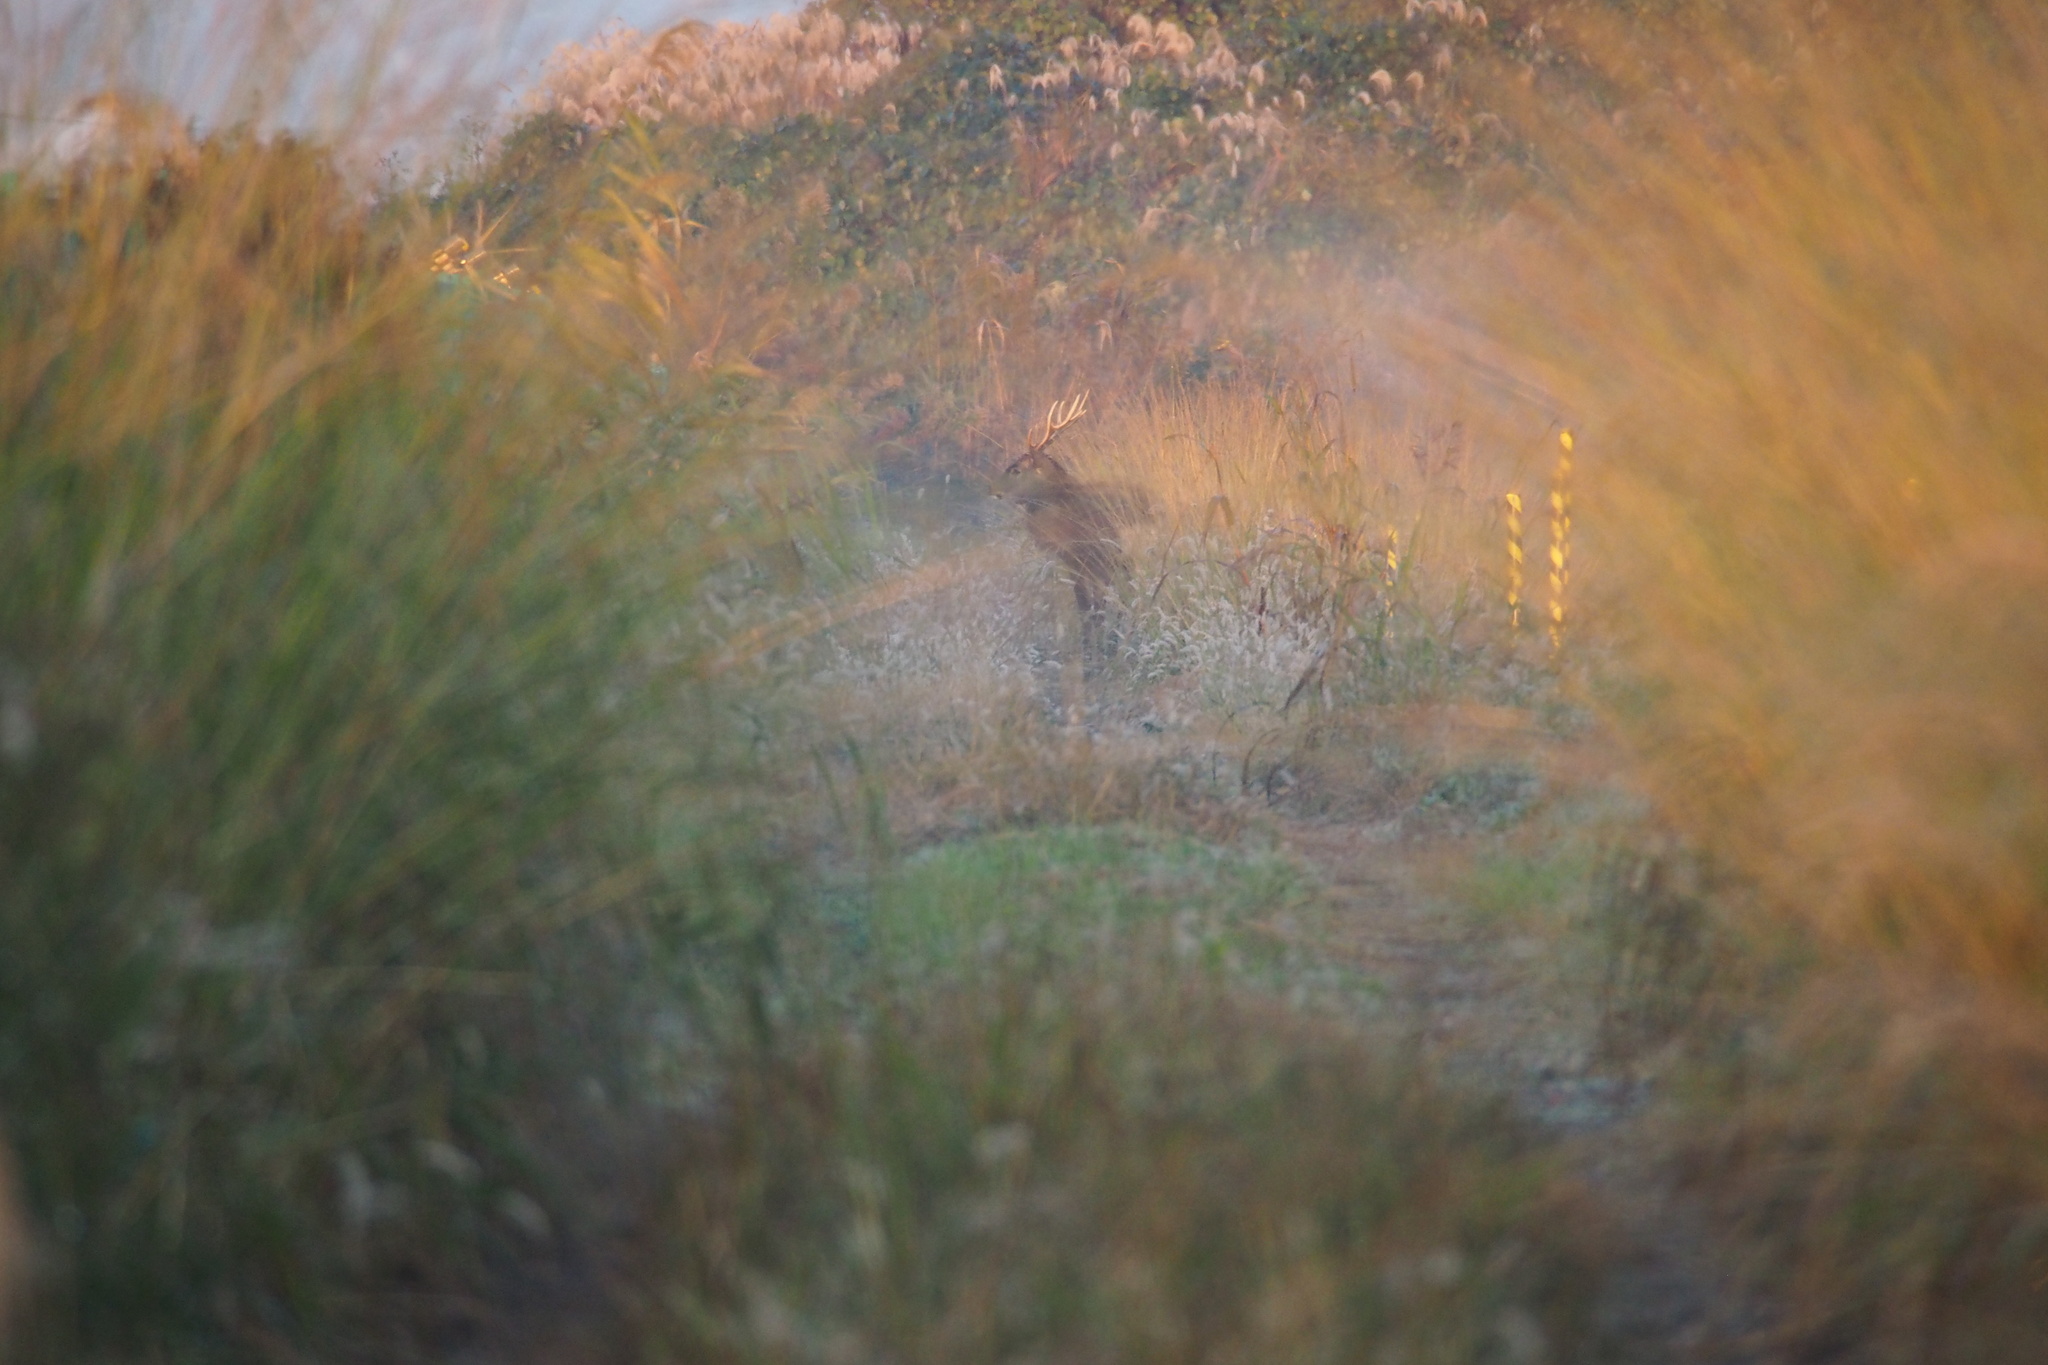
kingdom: Animalia
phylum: Chordata
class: Mammalia
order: Artiodactyla
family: Cervidae
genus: Cervus
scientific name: Cervus nippon
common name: Sika deer
